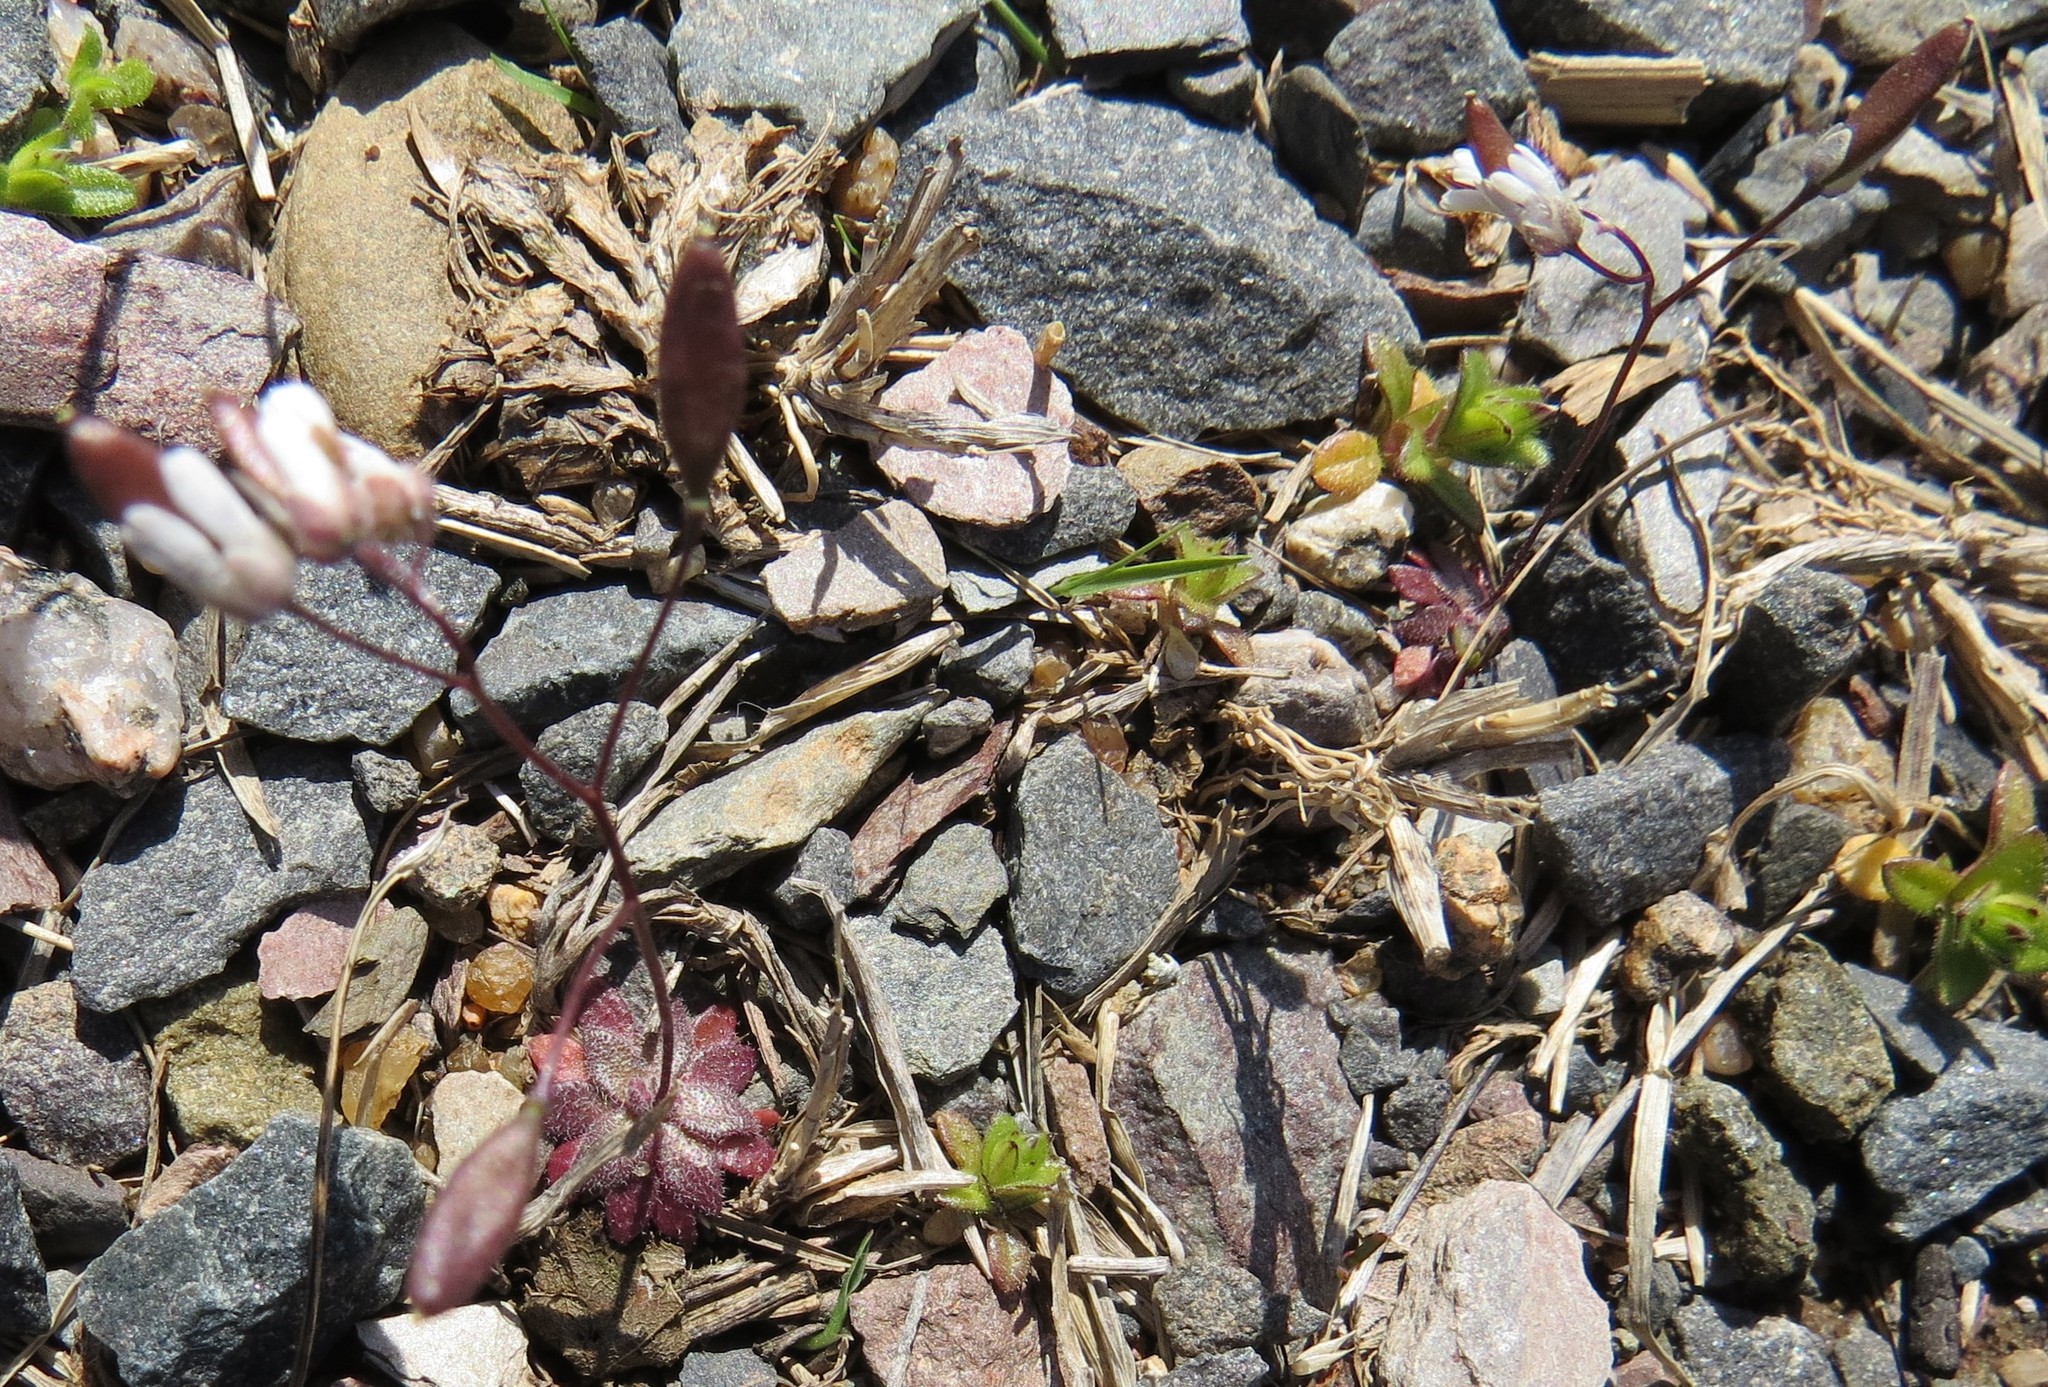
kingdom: Plantae
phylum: Tracheophyta
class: Magnoliopsida
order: Brassicales
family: Brassicaceae
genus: Draba
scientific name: Draba verna
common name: Spring draba
